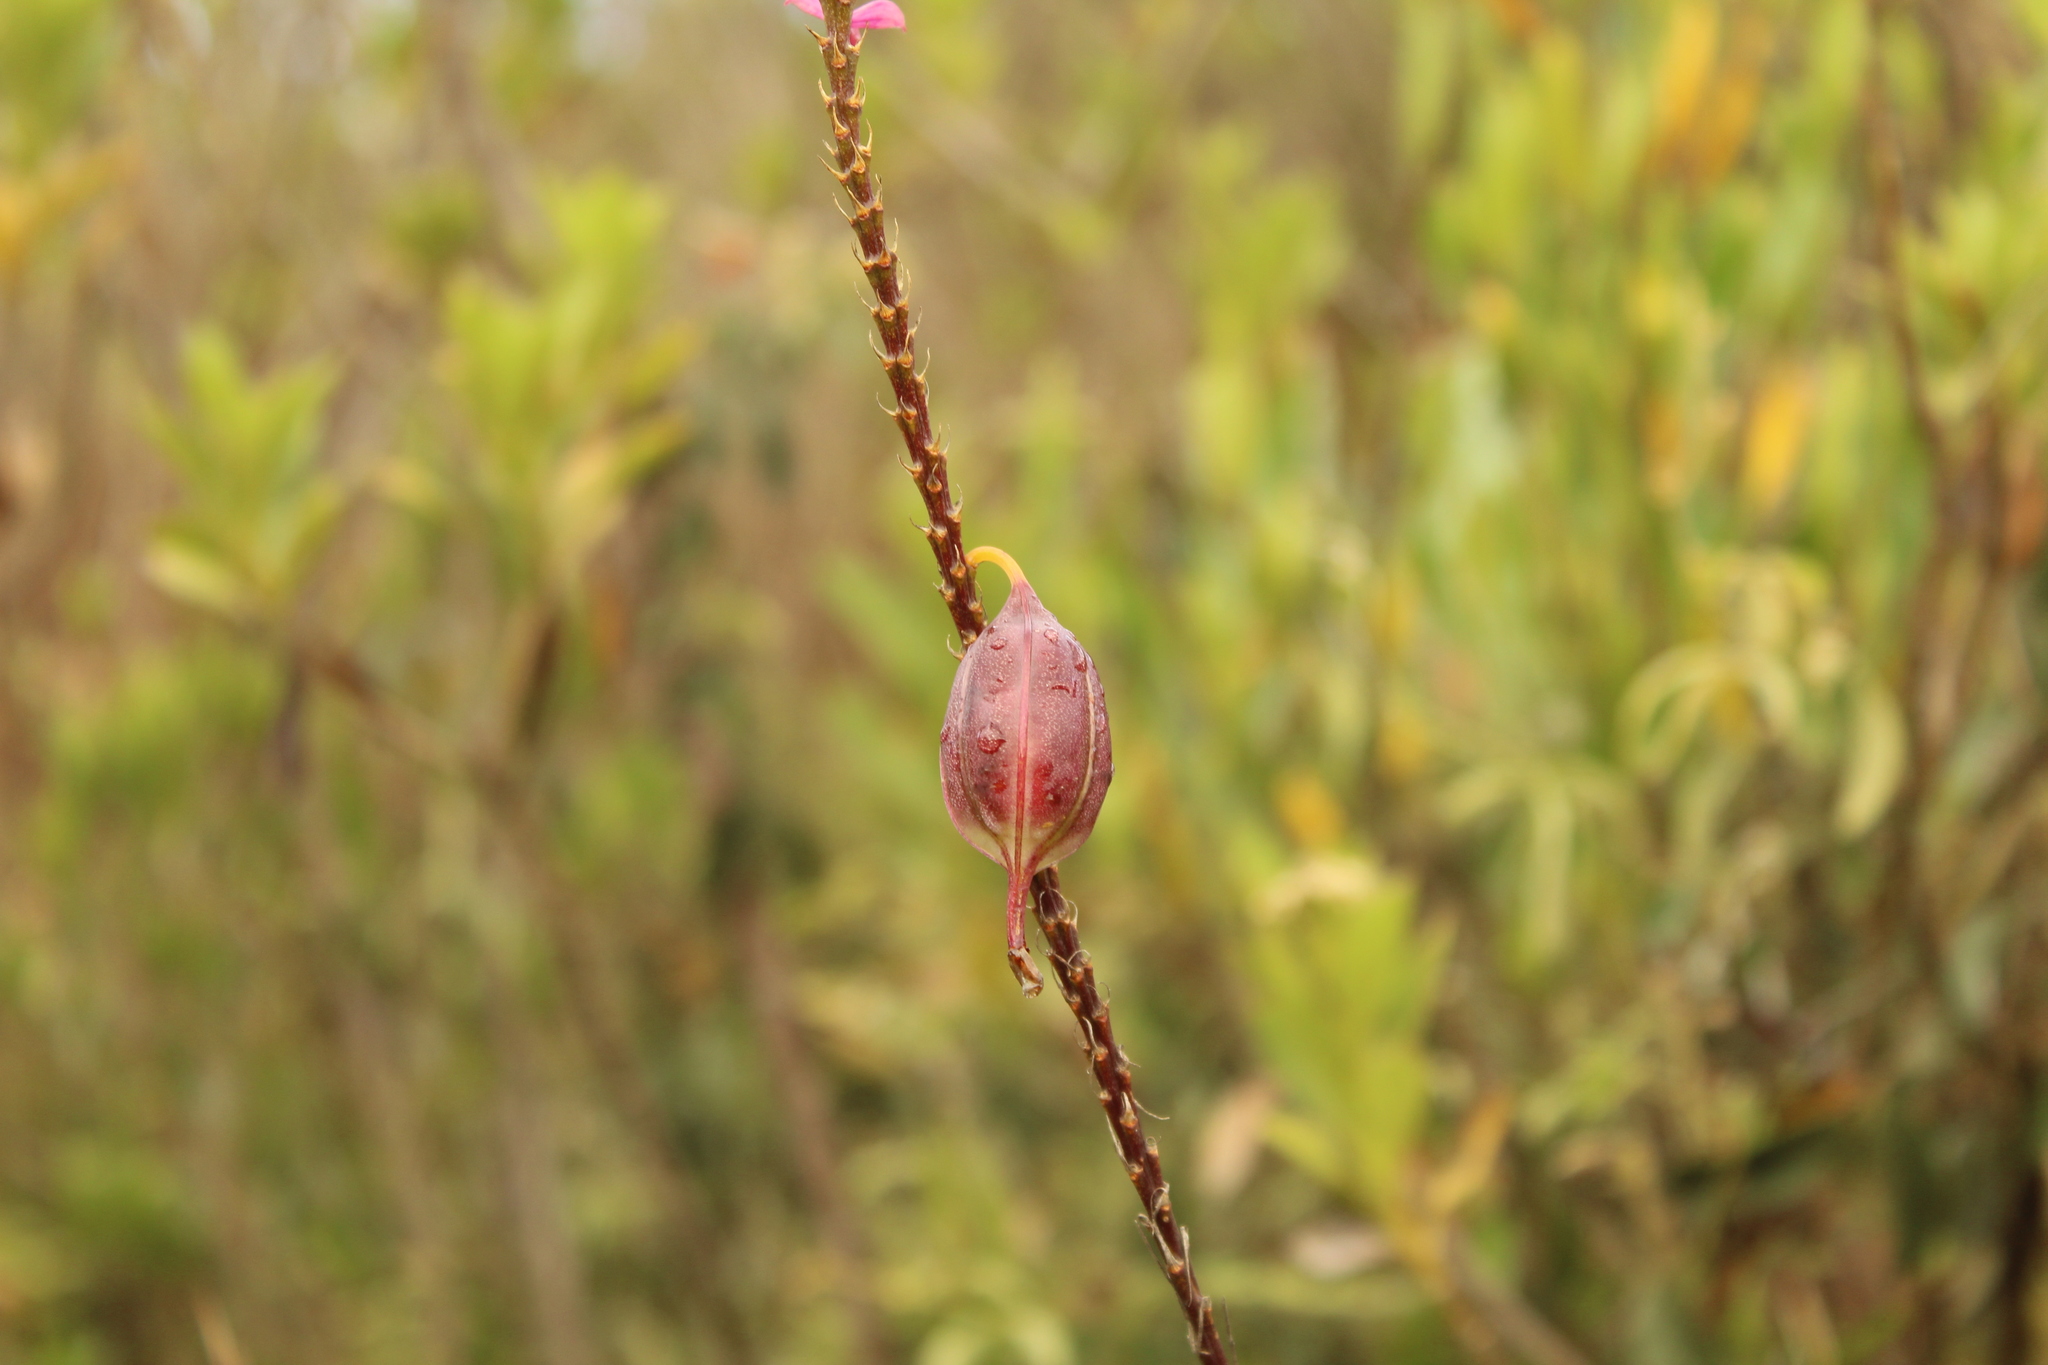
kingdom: Plantae
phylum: Tracheophyta
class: Liliopsida
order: Asparagales
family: Orchidaceae
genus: Epidendrum
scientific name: Epidendrum arachnoglossum
